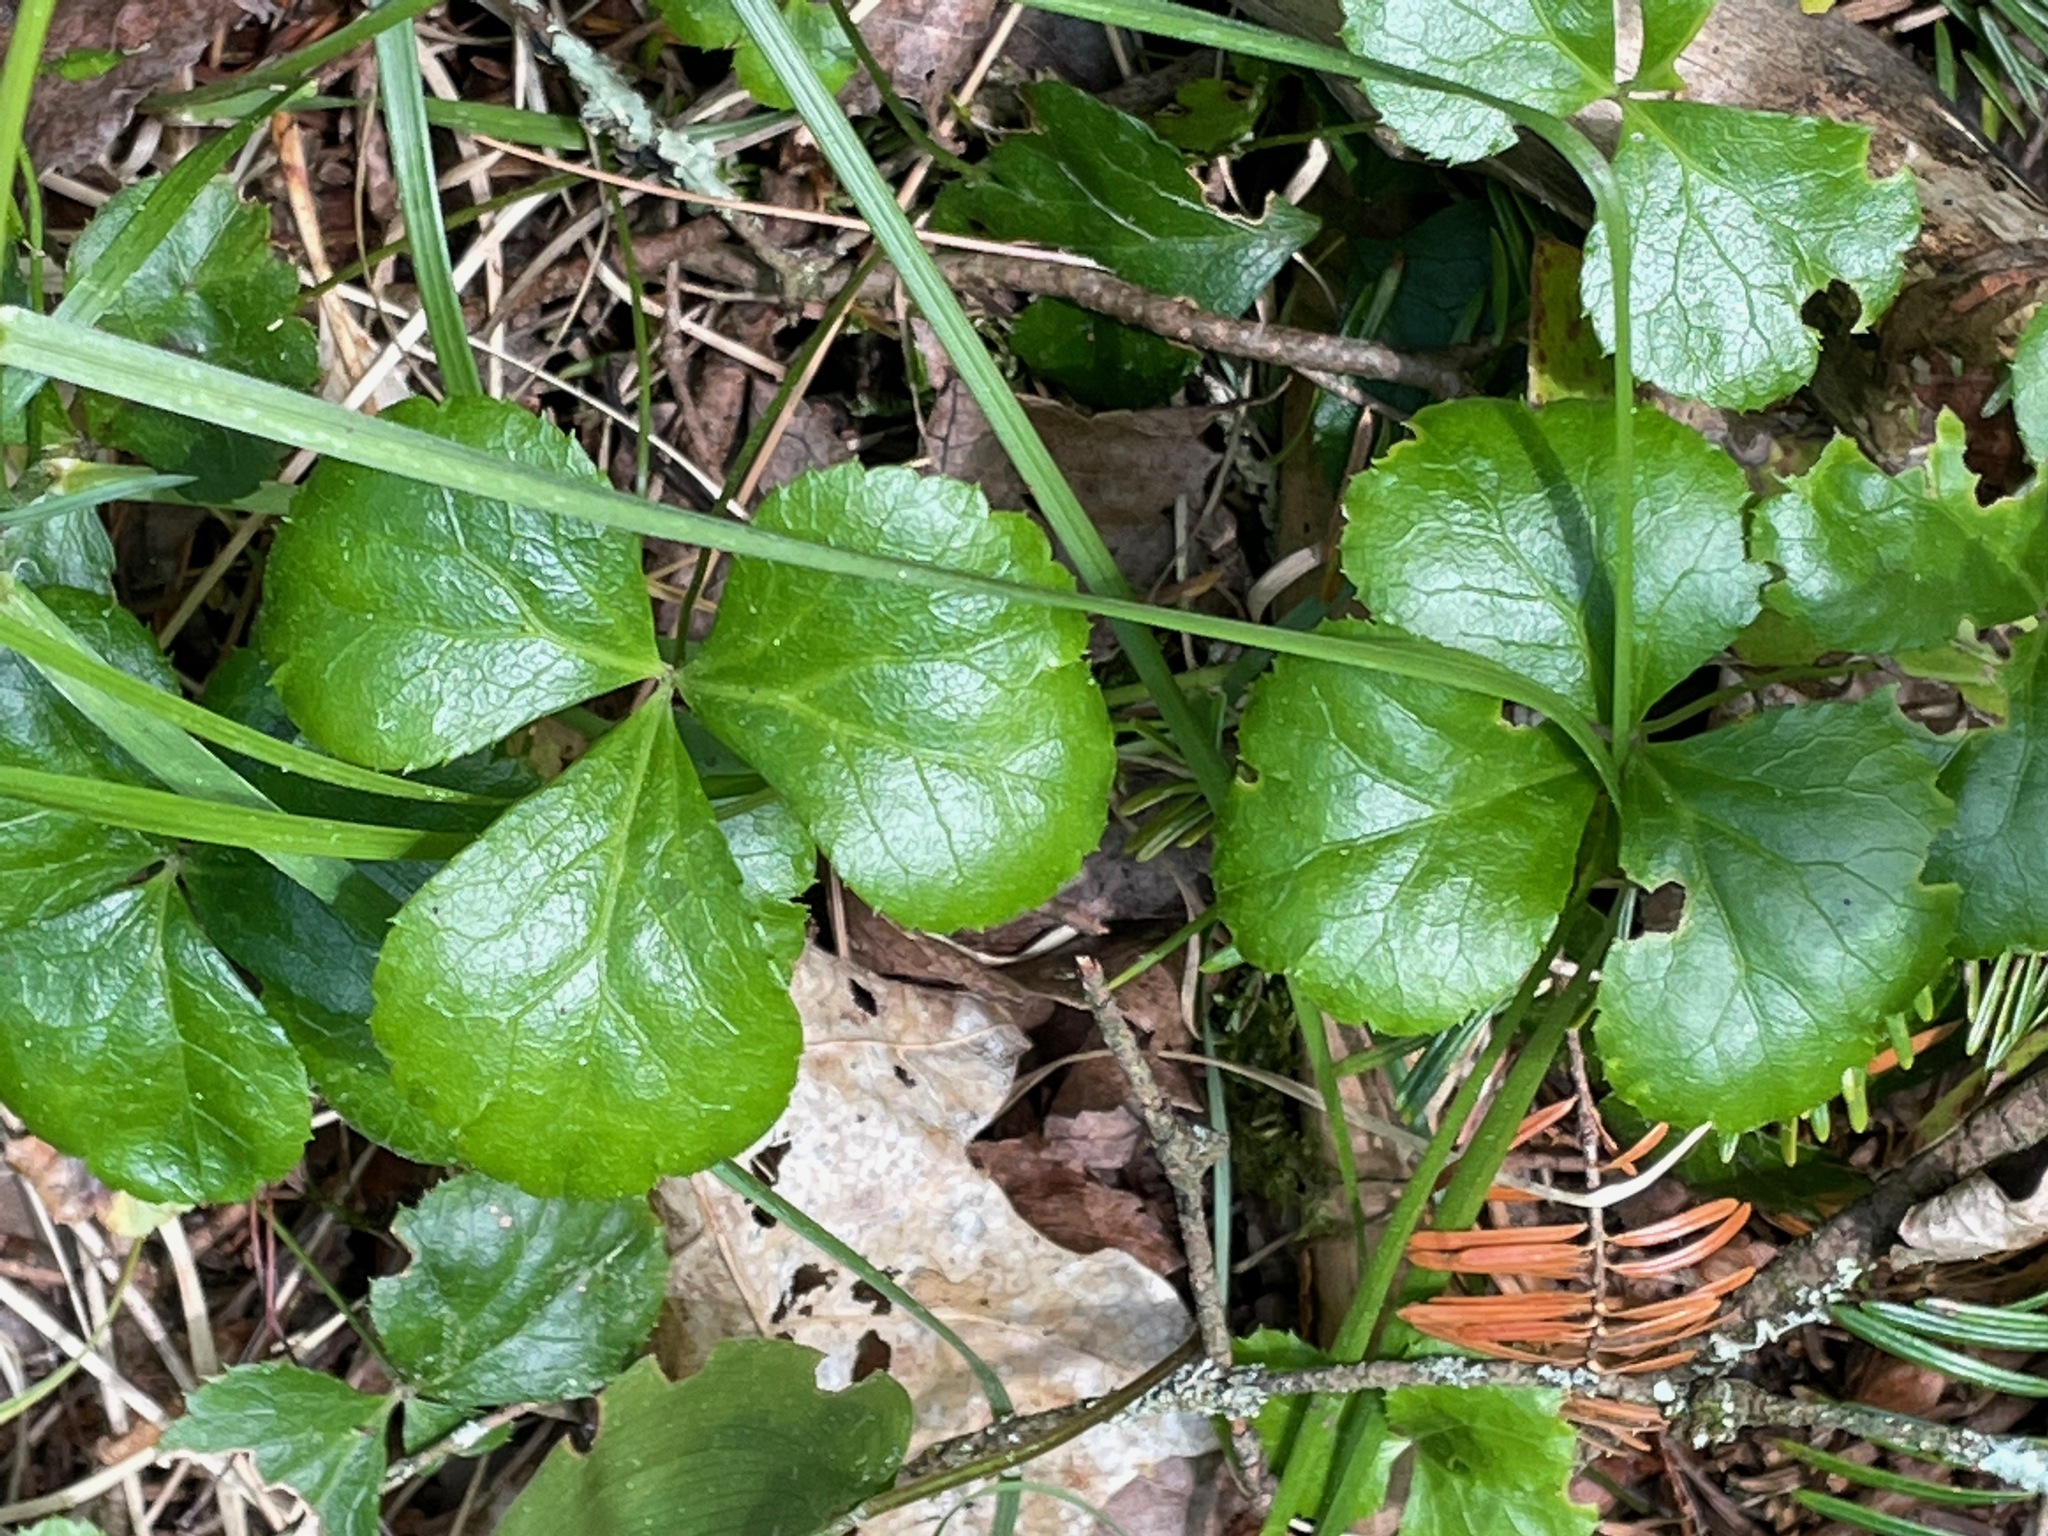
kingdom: Plantae
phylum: Tracheophyta
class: Magnoliopsida
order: Ranunculales
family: Ranunculaceae
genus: Coptis
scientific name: Coptis trifolia
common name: Canker-root
